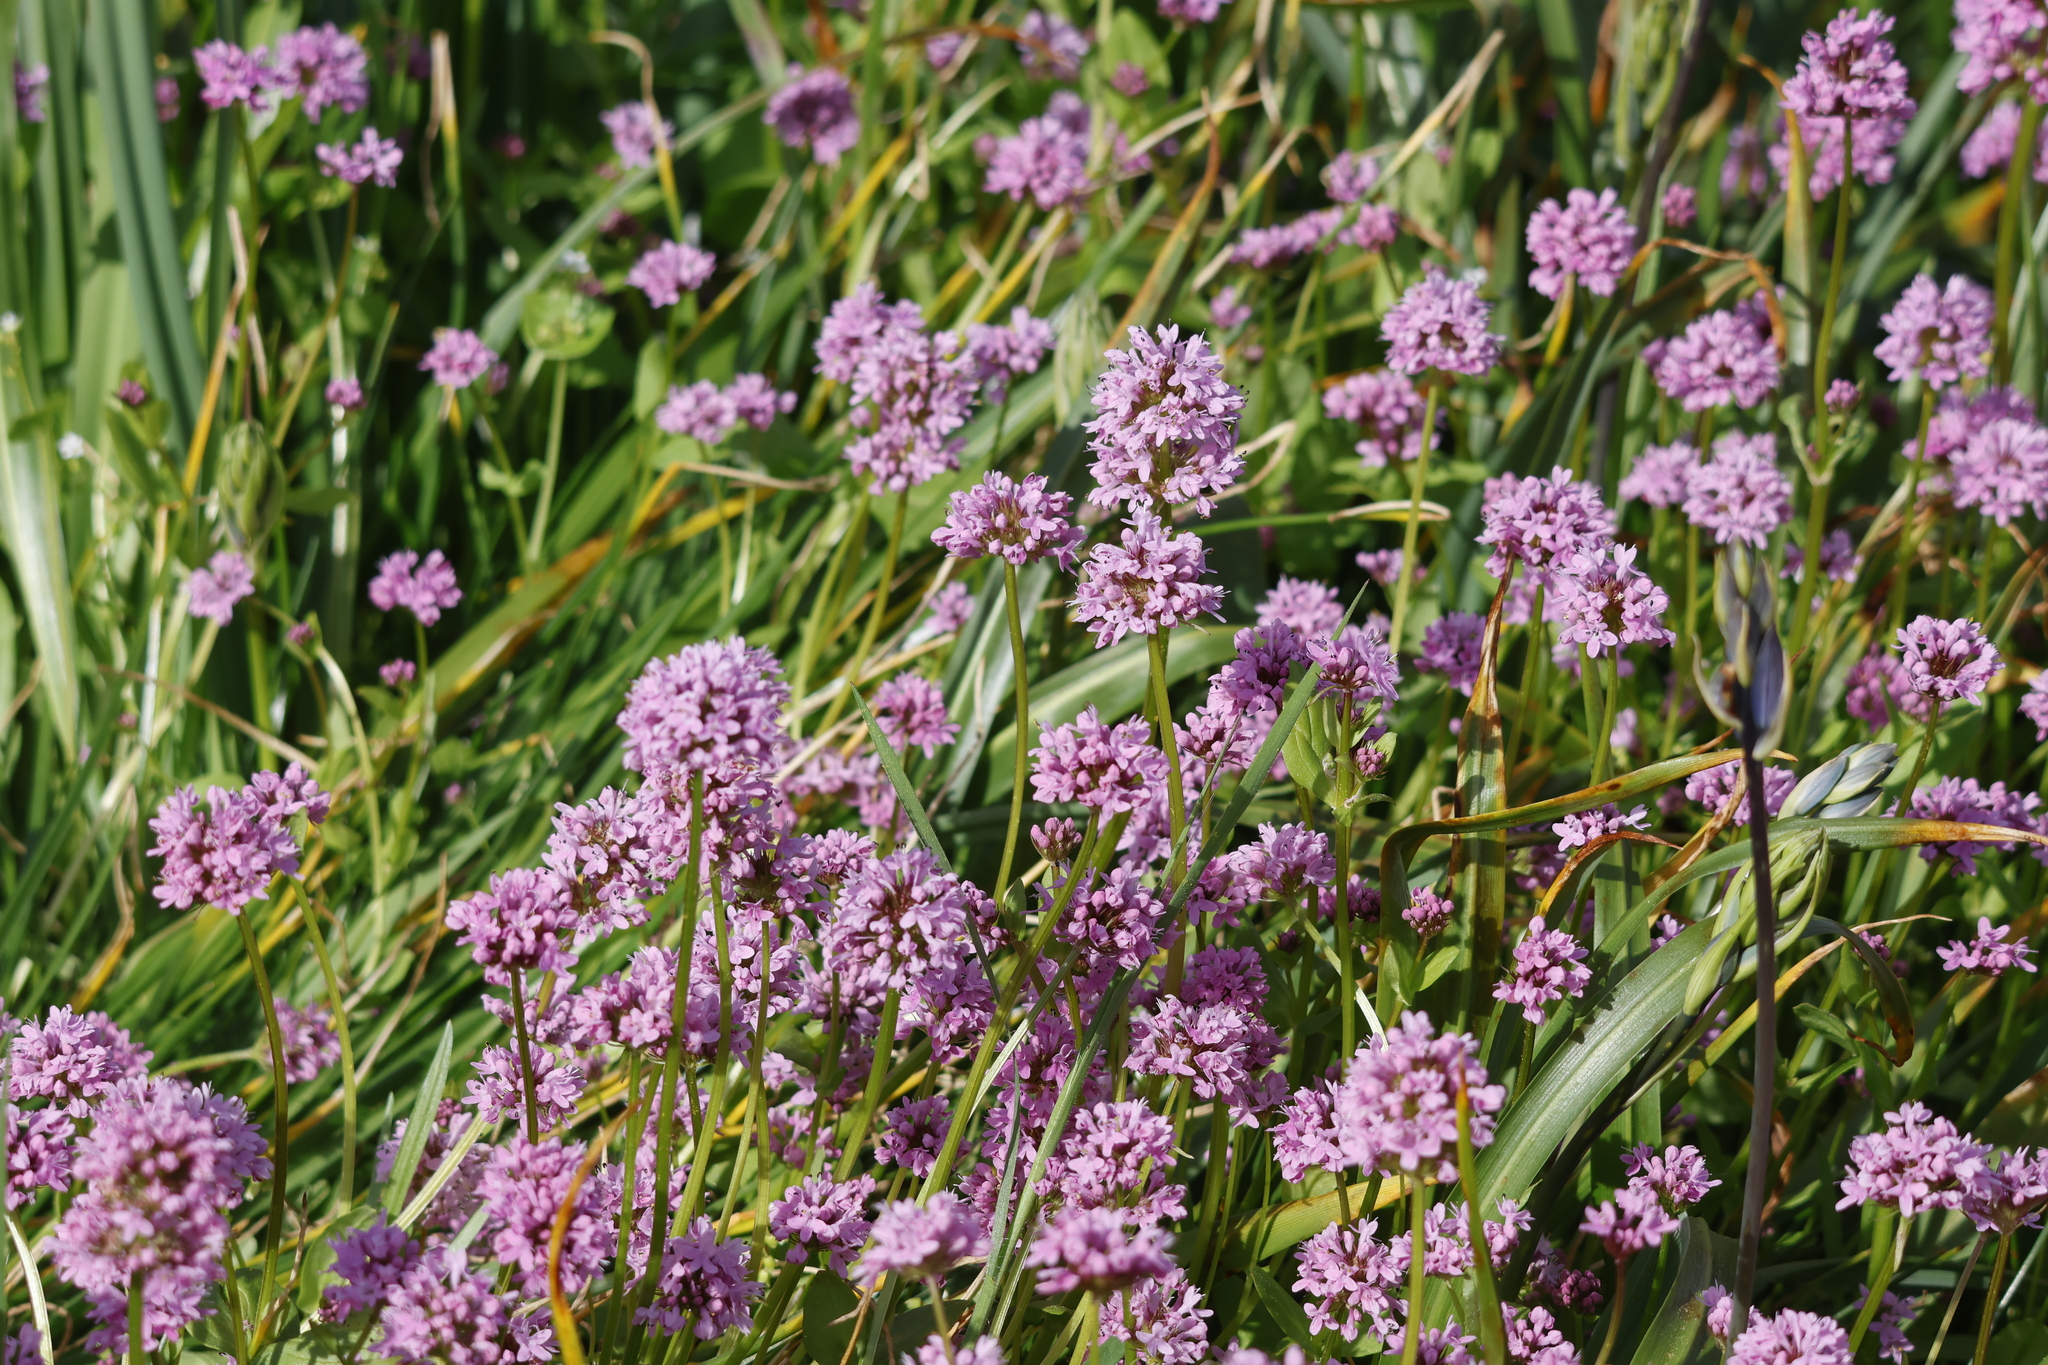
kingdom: Plantae
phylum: Tracheophyta
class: Magnoliopsida
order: Dipsacales
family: Caprifoliaceae
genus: Plectritis
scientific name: Plectritis congesta
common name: Pink plectritis
